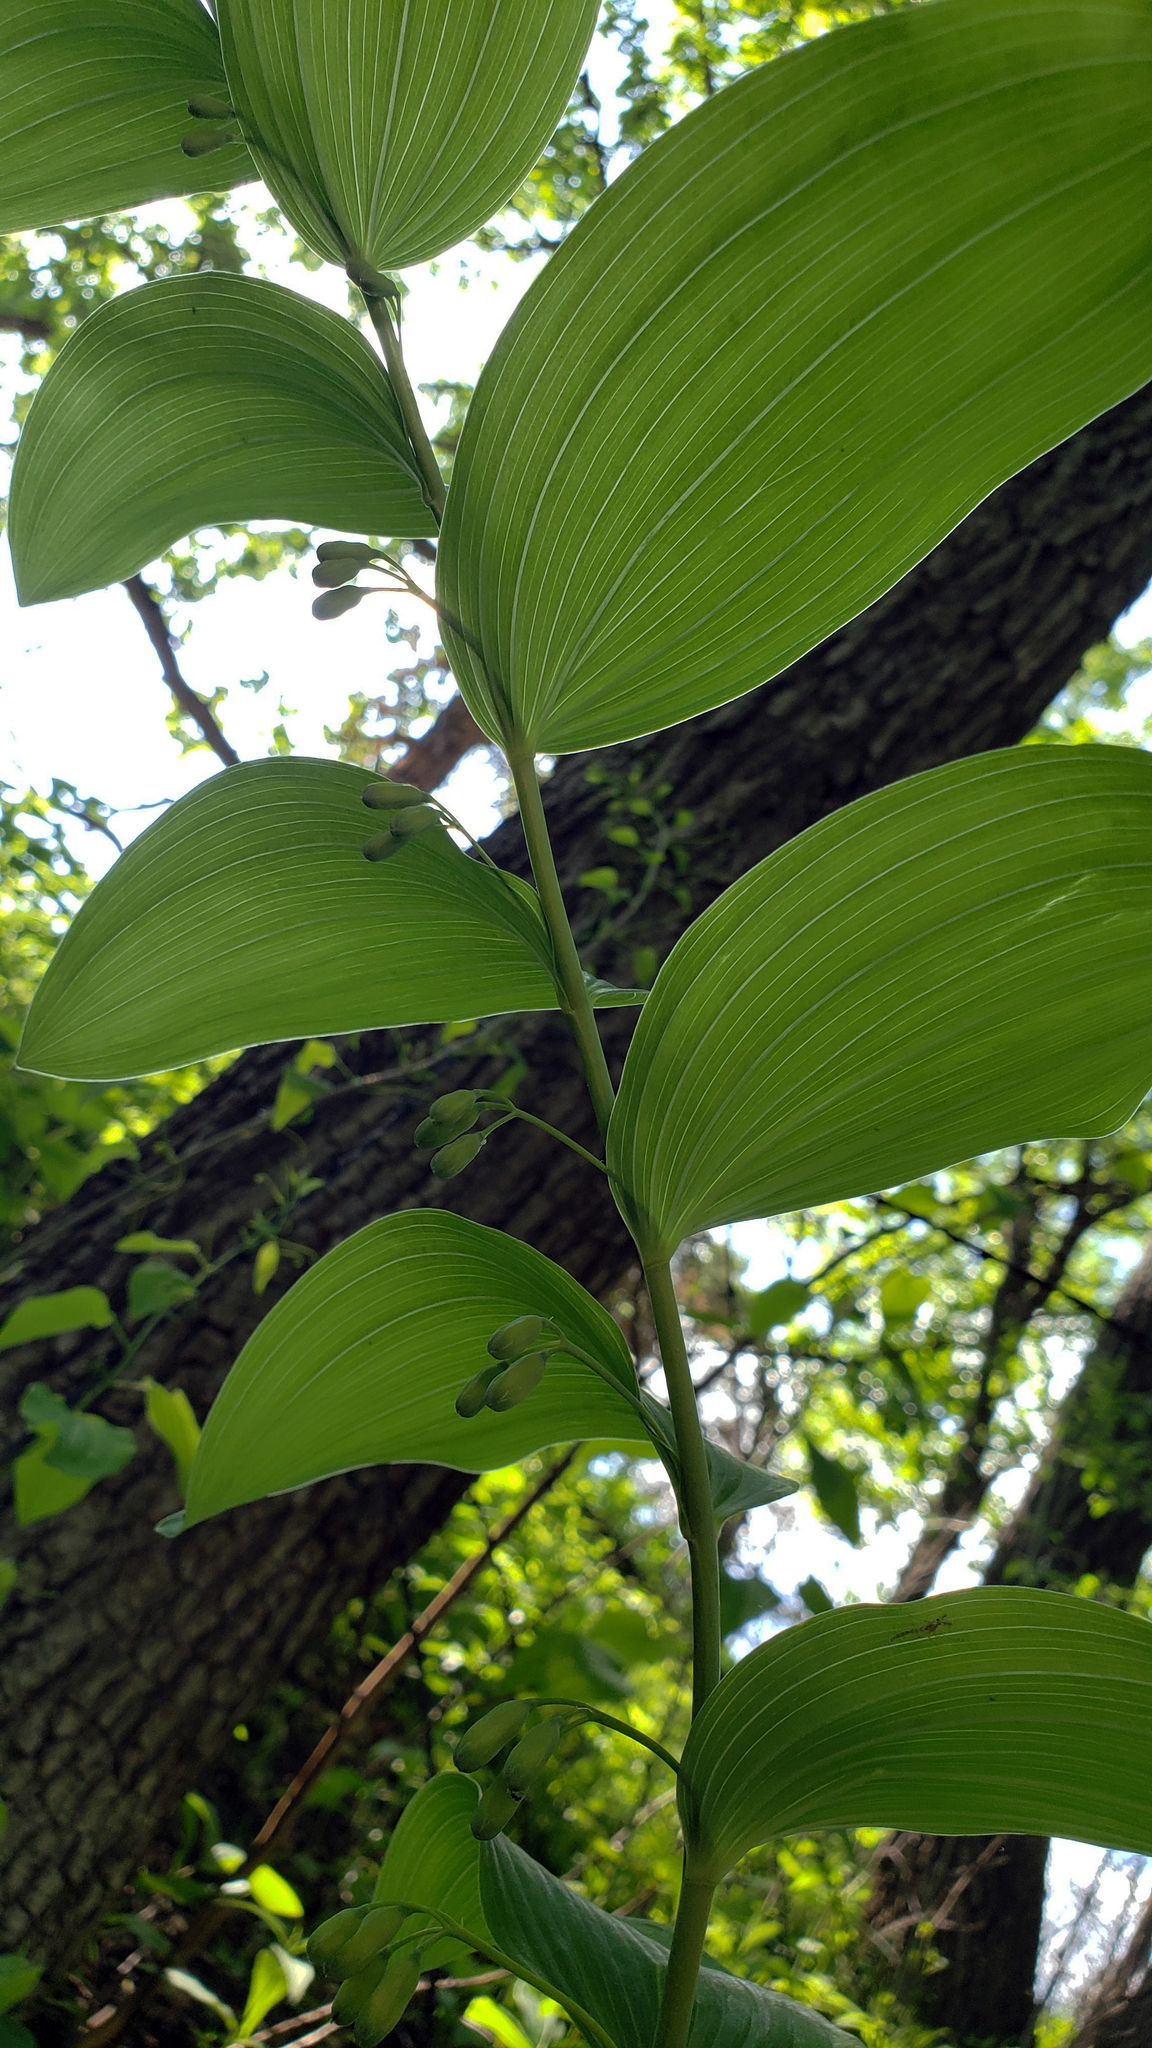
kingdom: Plantae
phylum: Tracheophyta
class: Liliopsida
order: Asparagales
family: Asparagaceae
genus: Polygonatum
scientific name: Polygonatum biflorum
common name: American solomon's-seal
